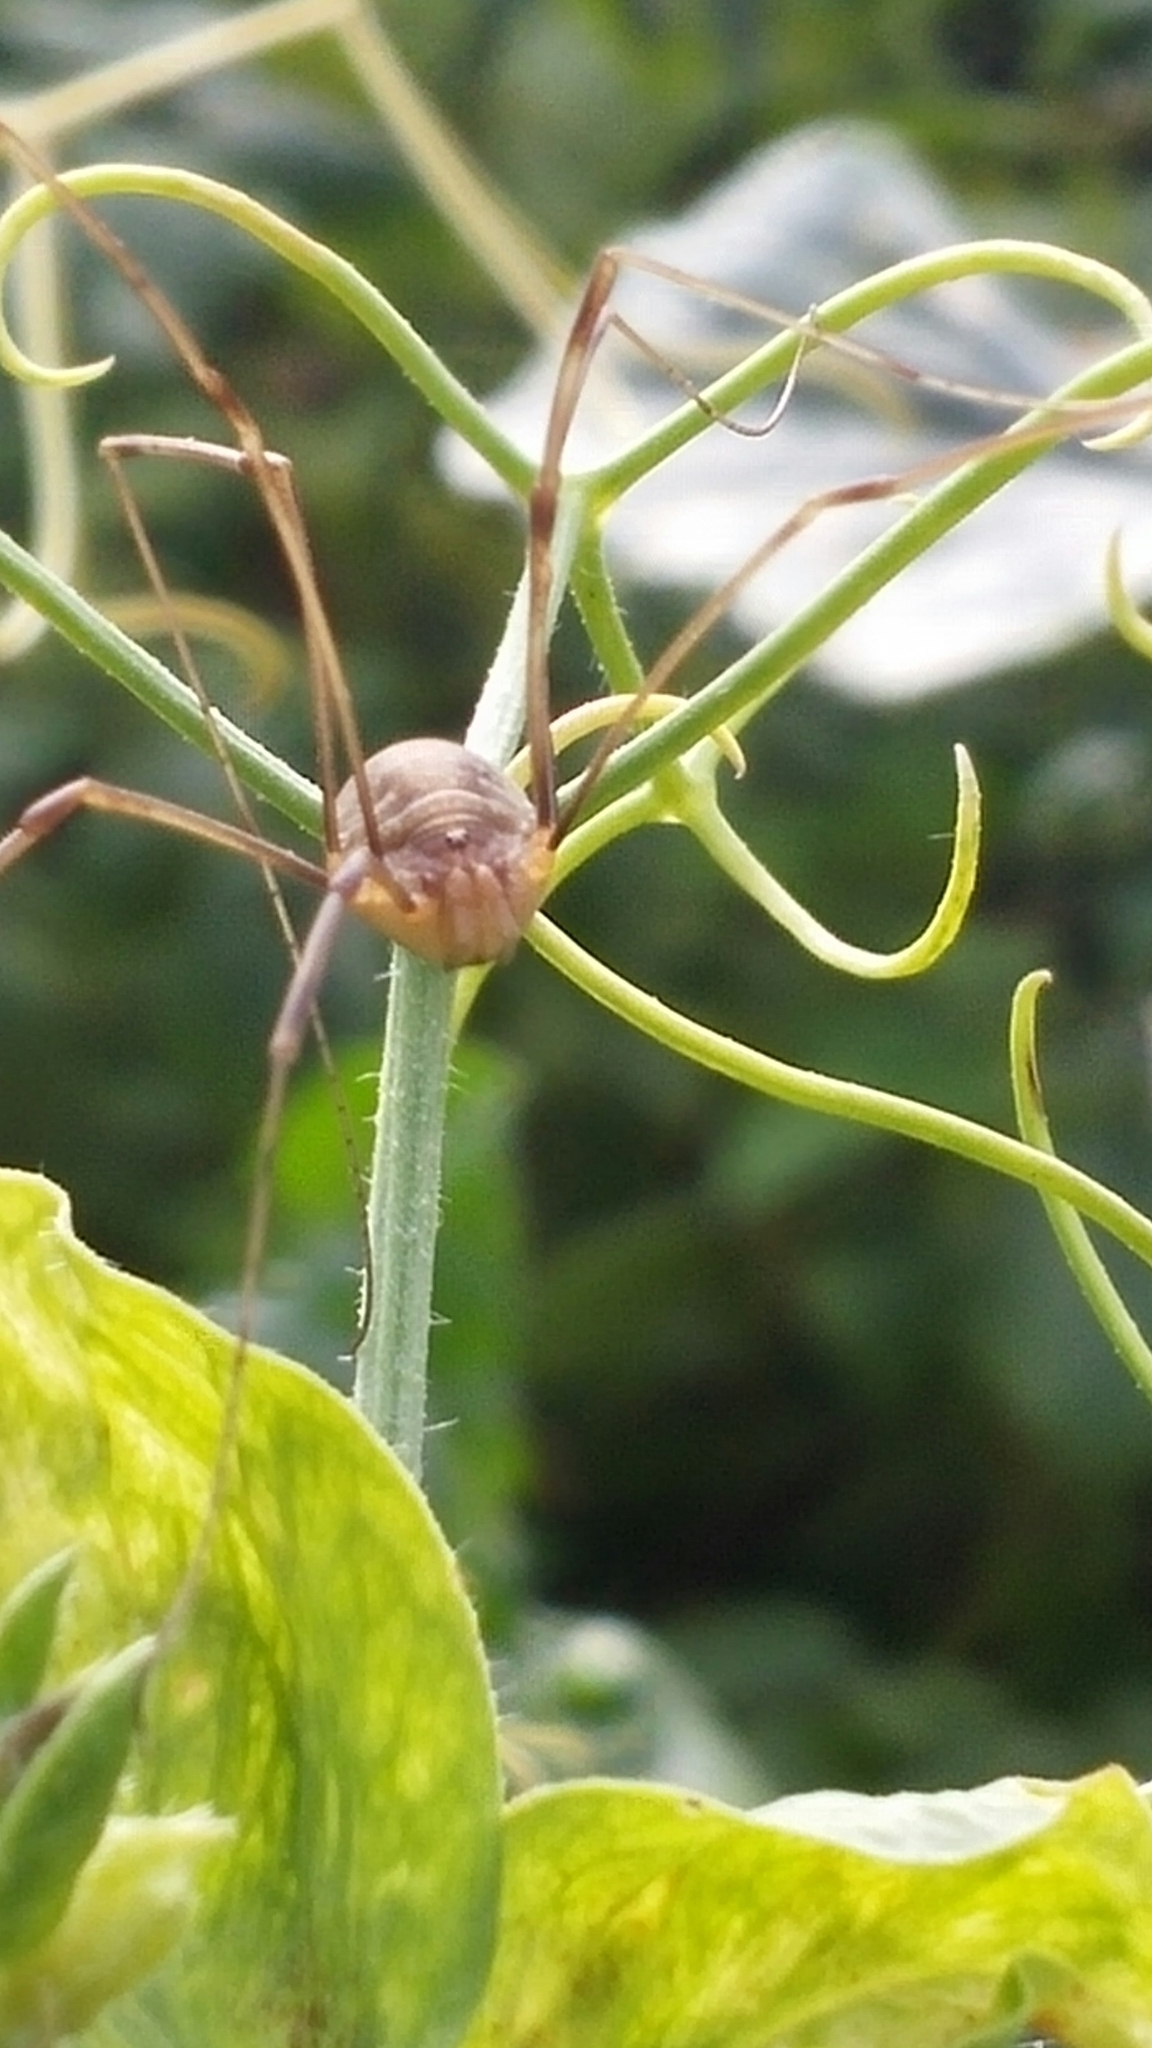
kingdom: Animalia
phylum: Arthropoda
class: Arachnida
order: Opiliones
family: Phalangiidae
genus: Opilio
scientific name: Opilio canestrinii
